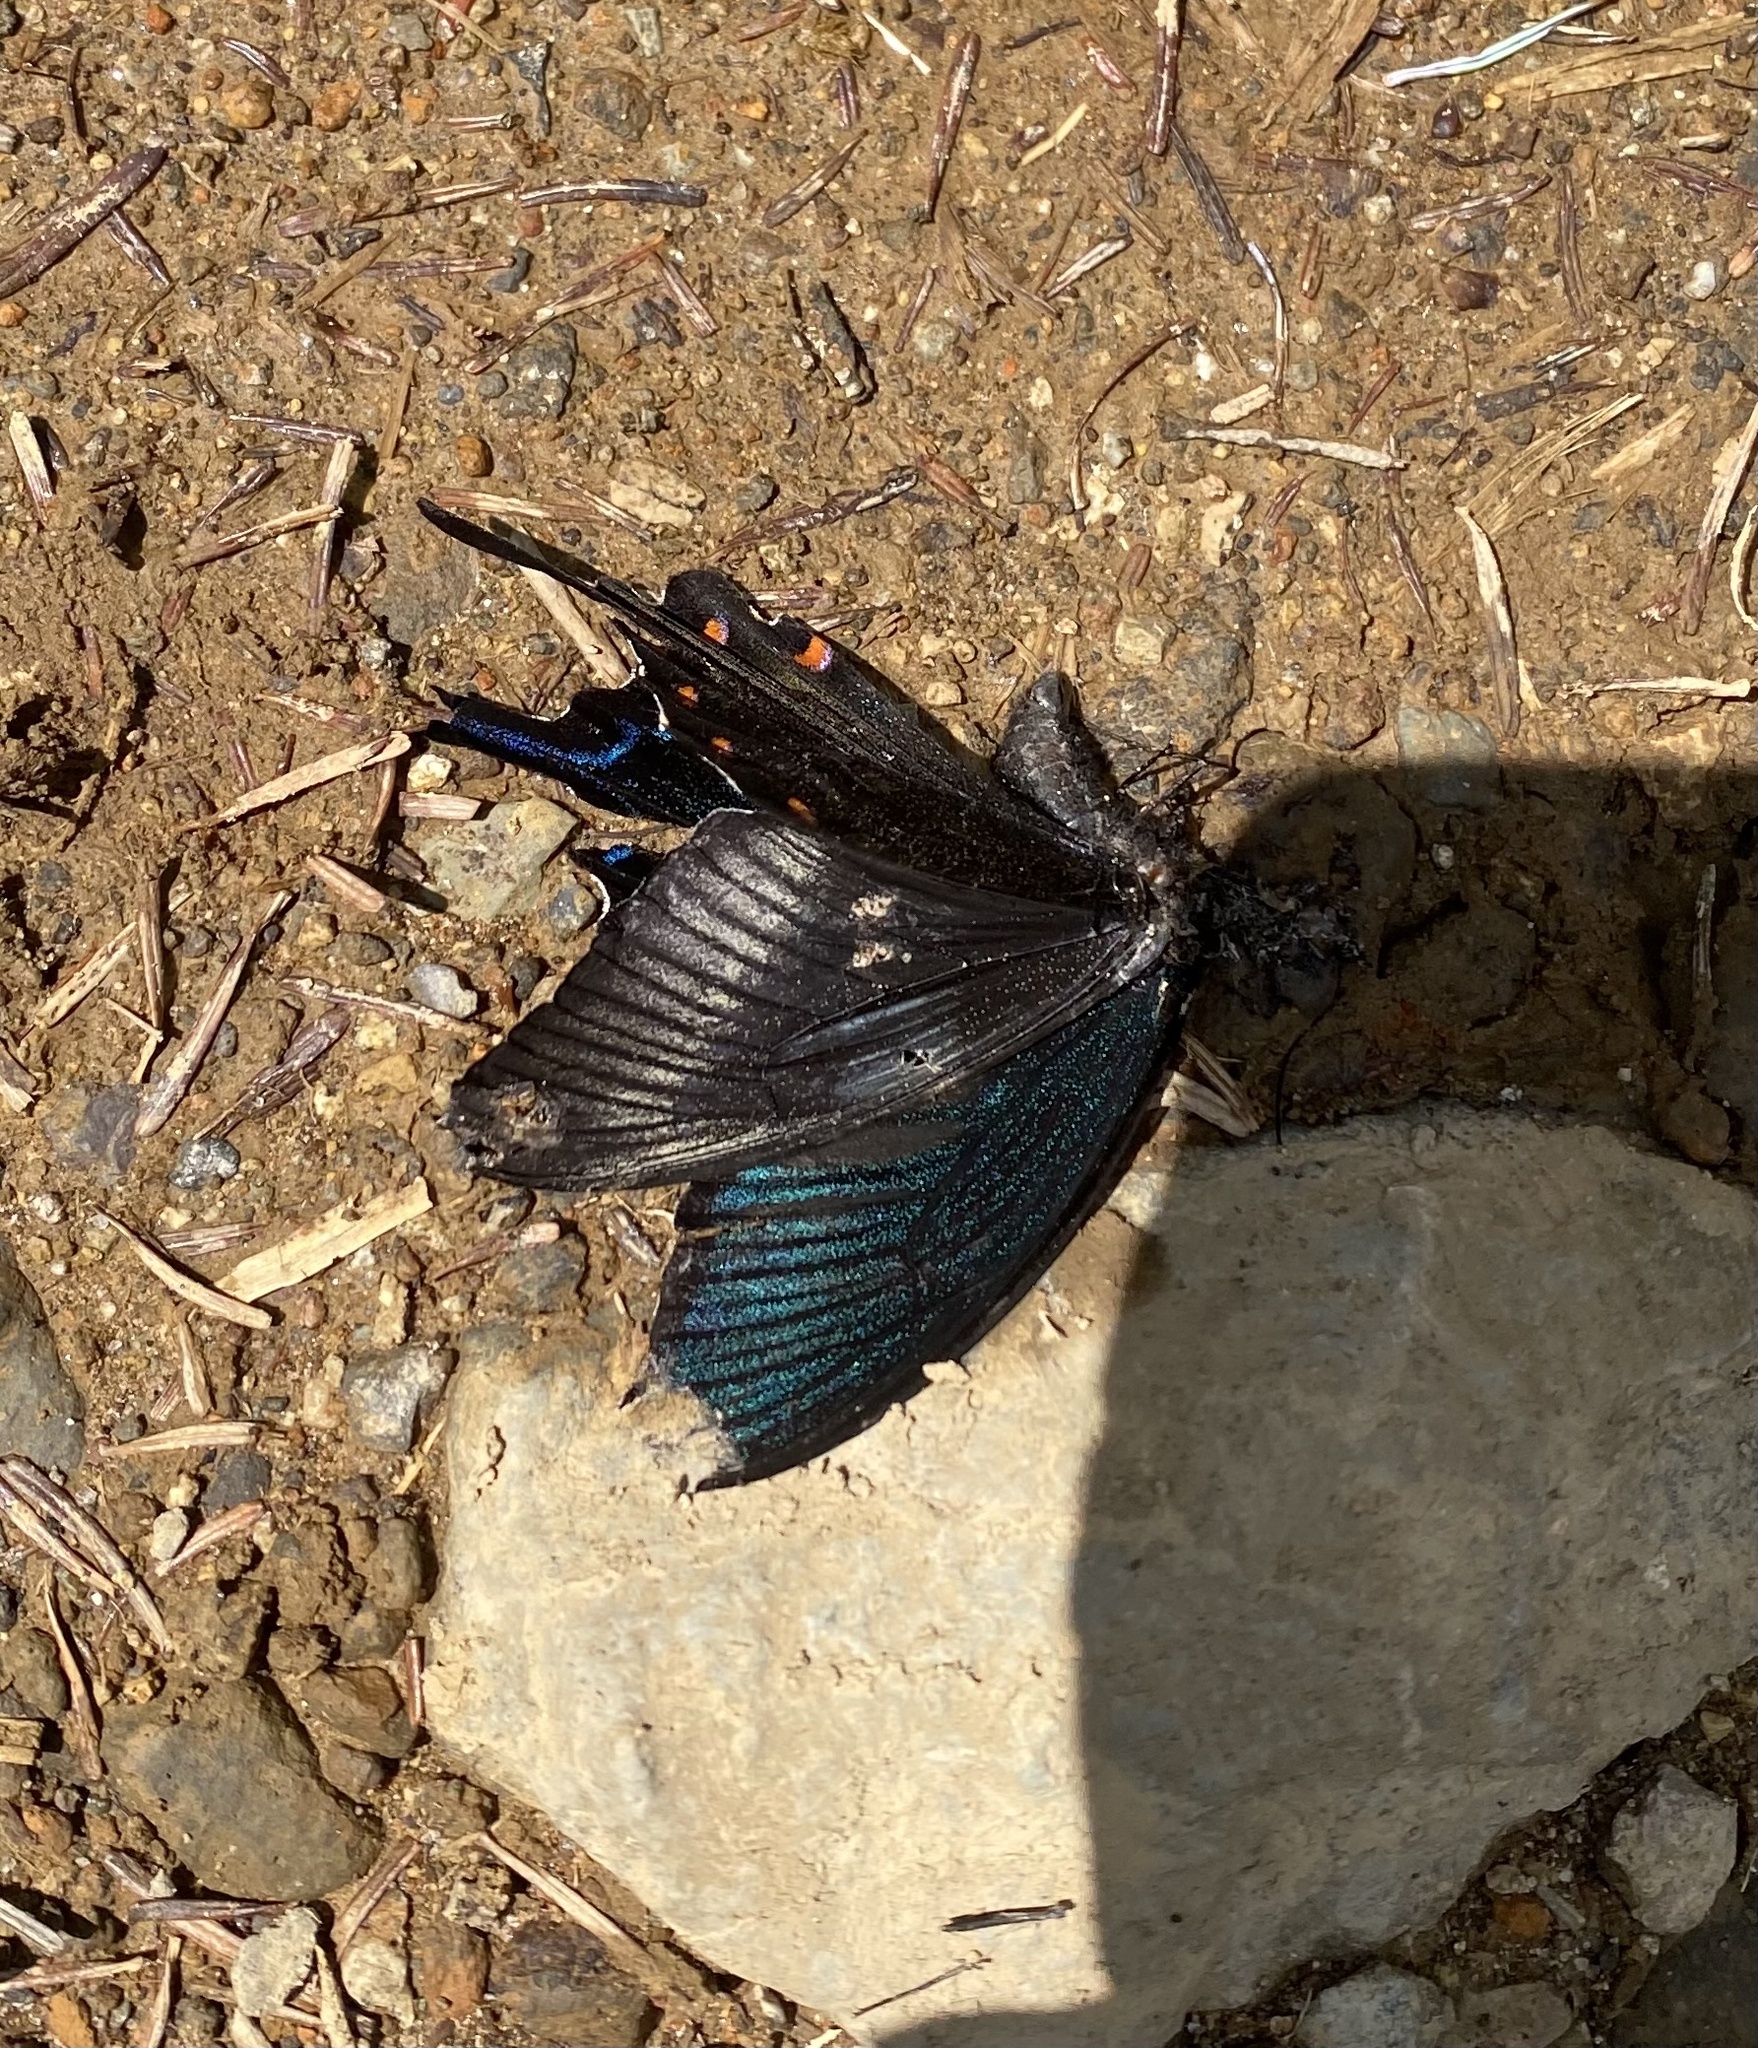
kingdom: Animalia
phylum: Arthropoda
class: Insecta
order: Lepidoptera
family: Papilionidae
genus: Papilio
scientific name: Papilio dehaanii
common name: Japanese peacock swallowtail
